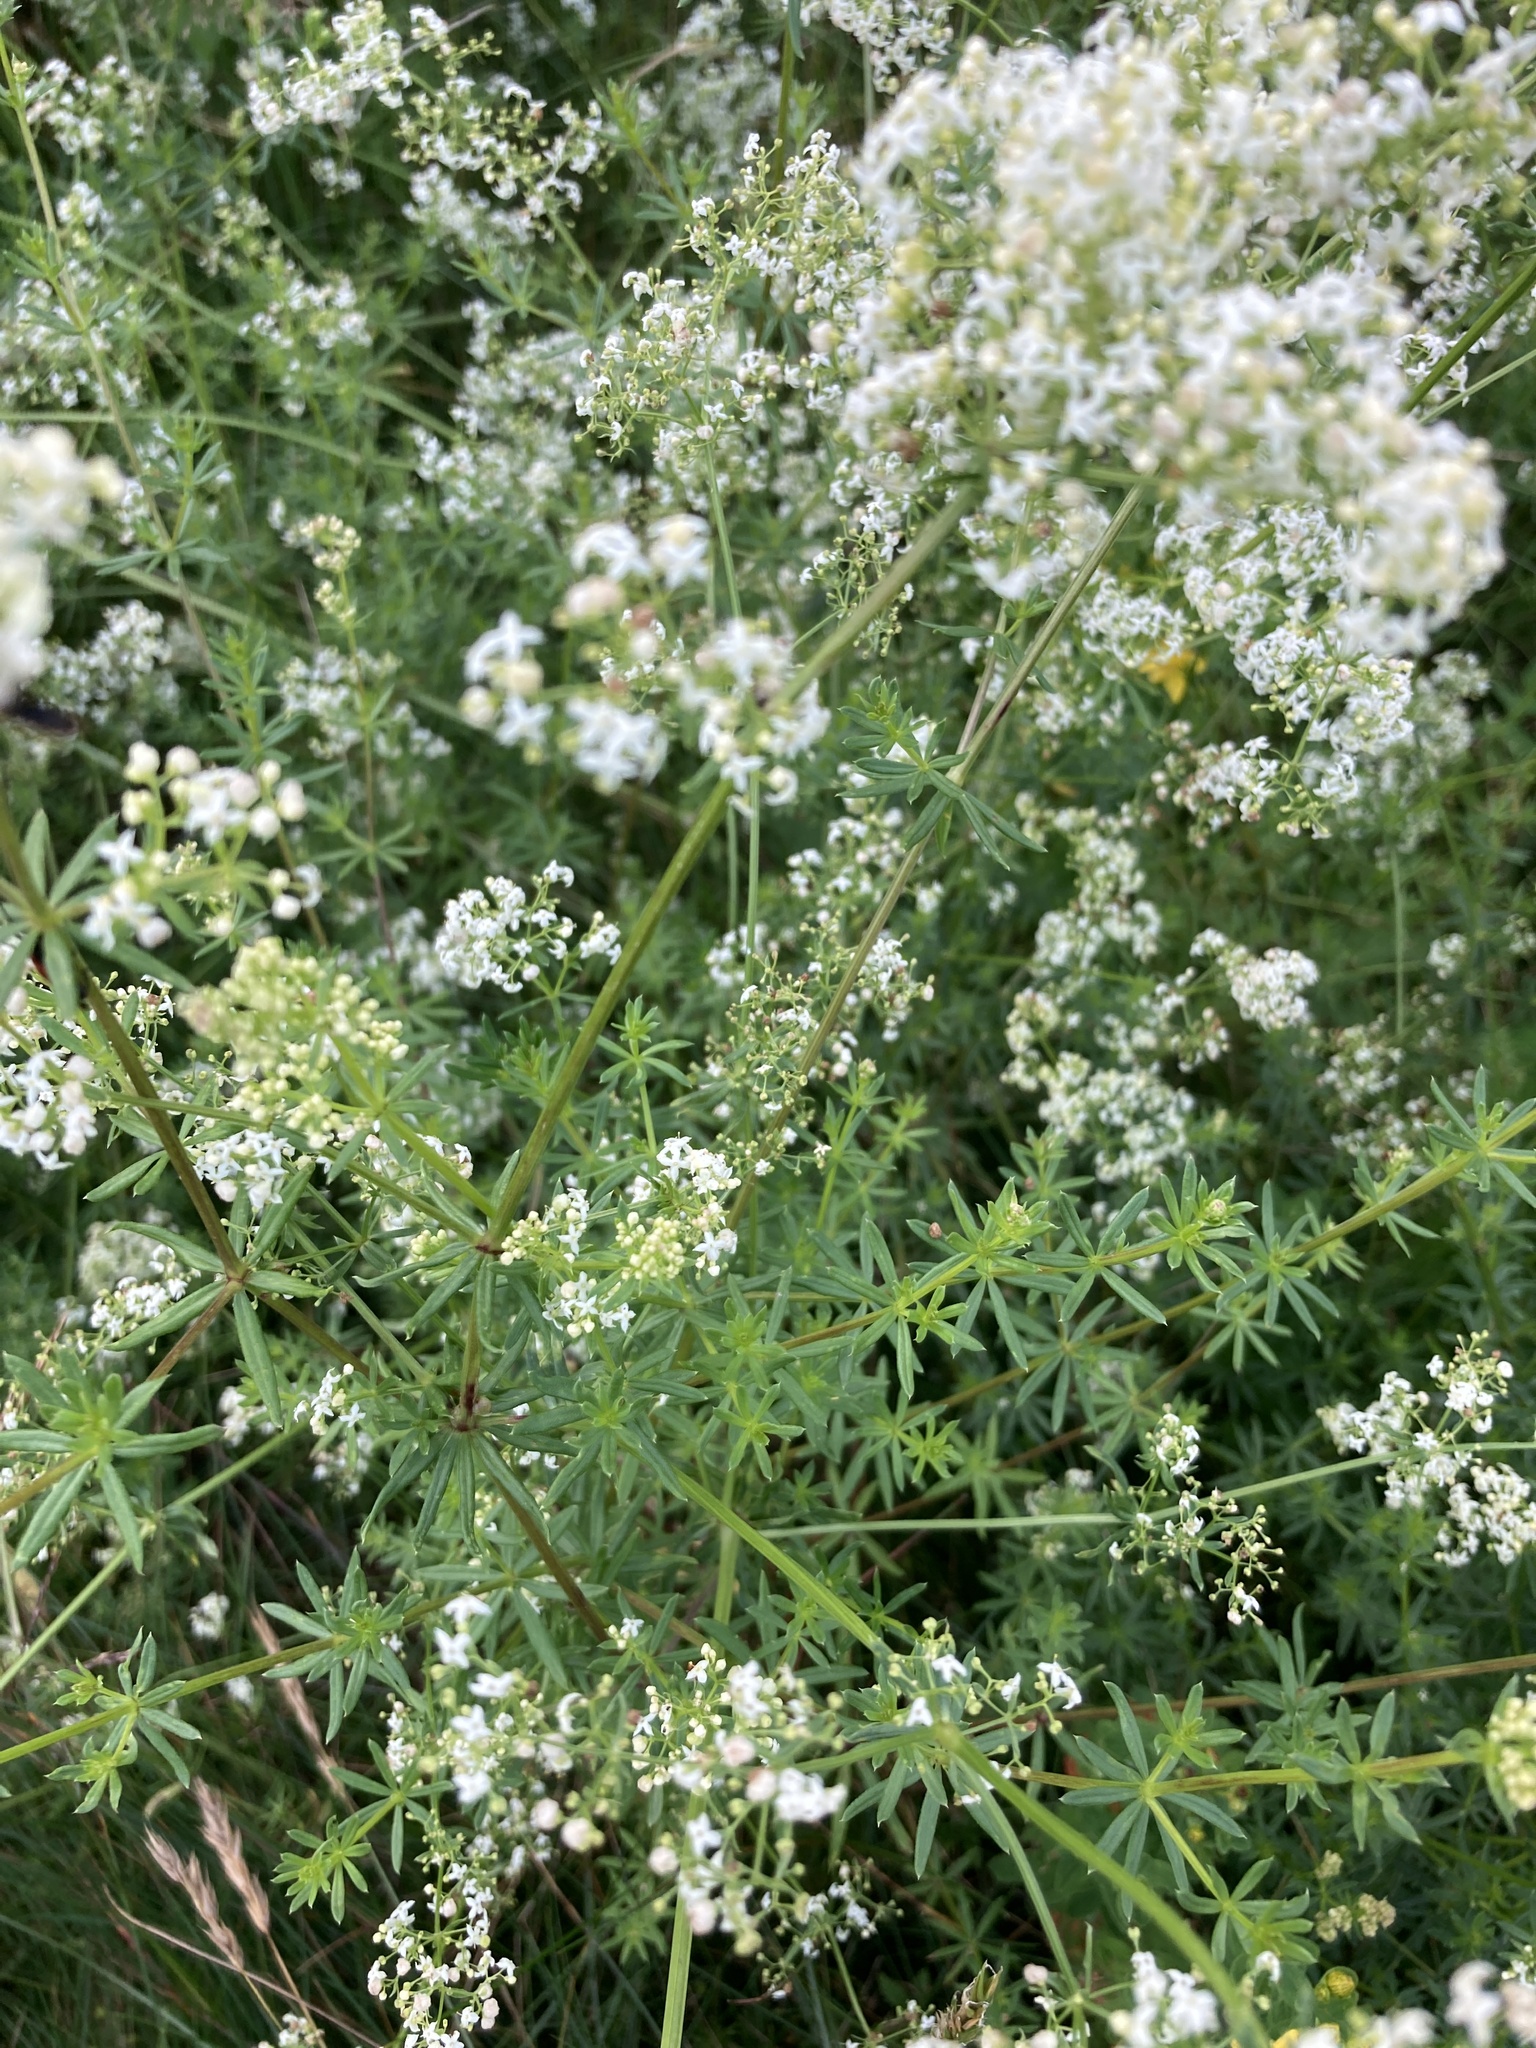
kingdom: Plantae
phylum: Tracheophyta
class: Magnoliopsida
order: Gentianales
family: Rubiaceae
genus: Galium
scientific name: Galium mollugo
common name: Hedge bedstraw
